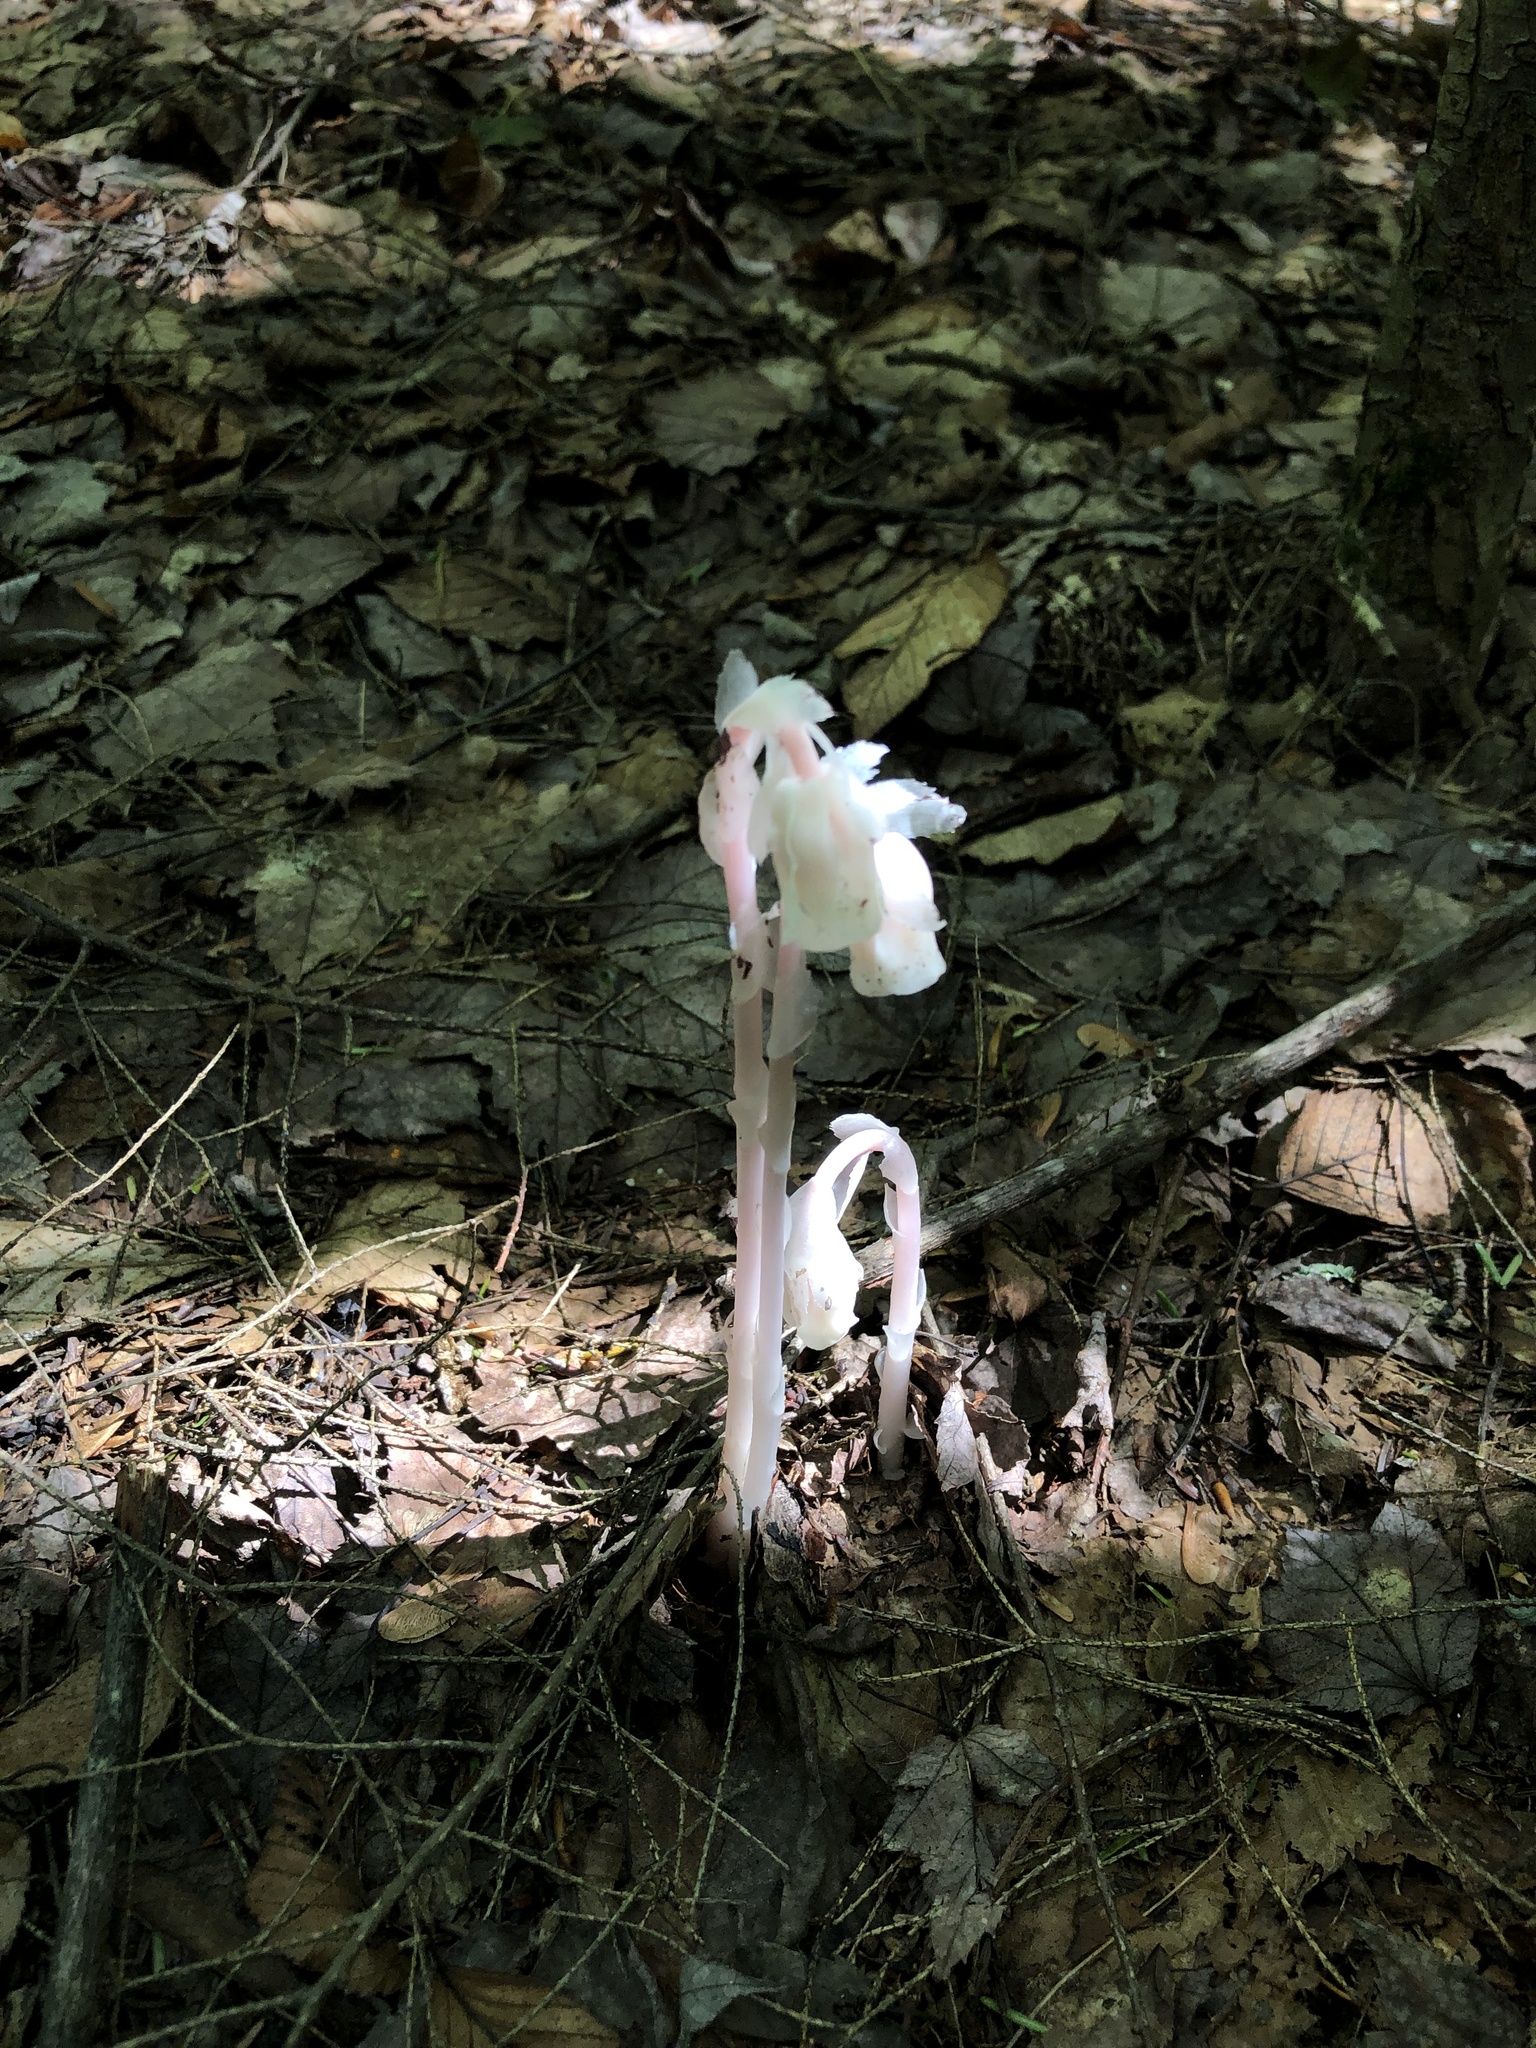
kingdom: Plantae
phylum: Tracheophyta
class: Magnoliopsida
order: Ericales
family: Ericaceae
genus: Monotropa
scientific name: Monotropa uniflora
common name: Convulsion root
